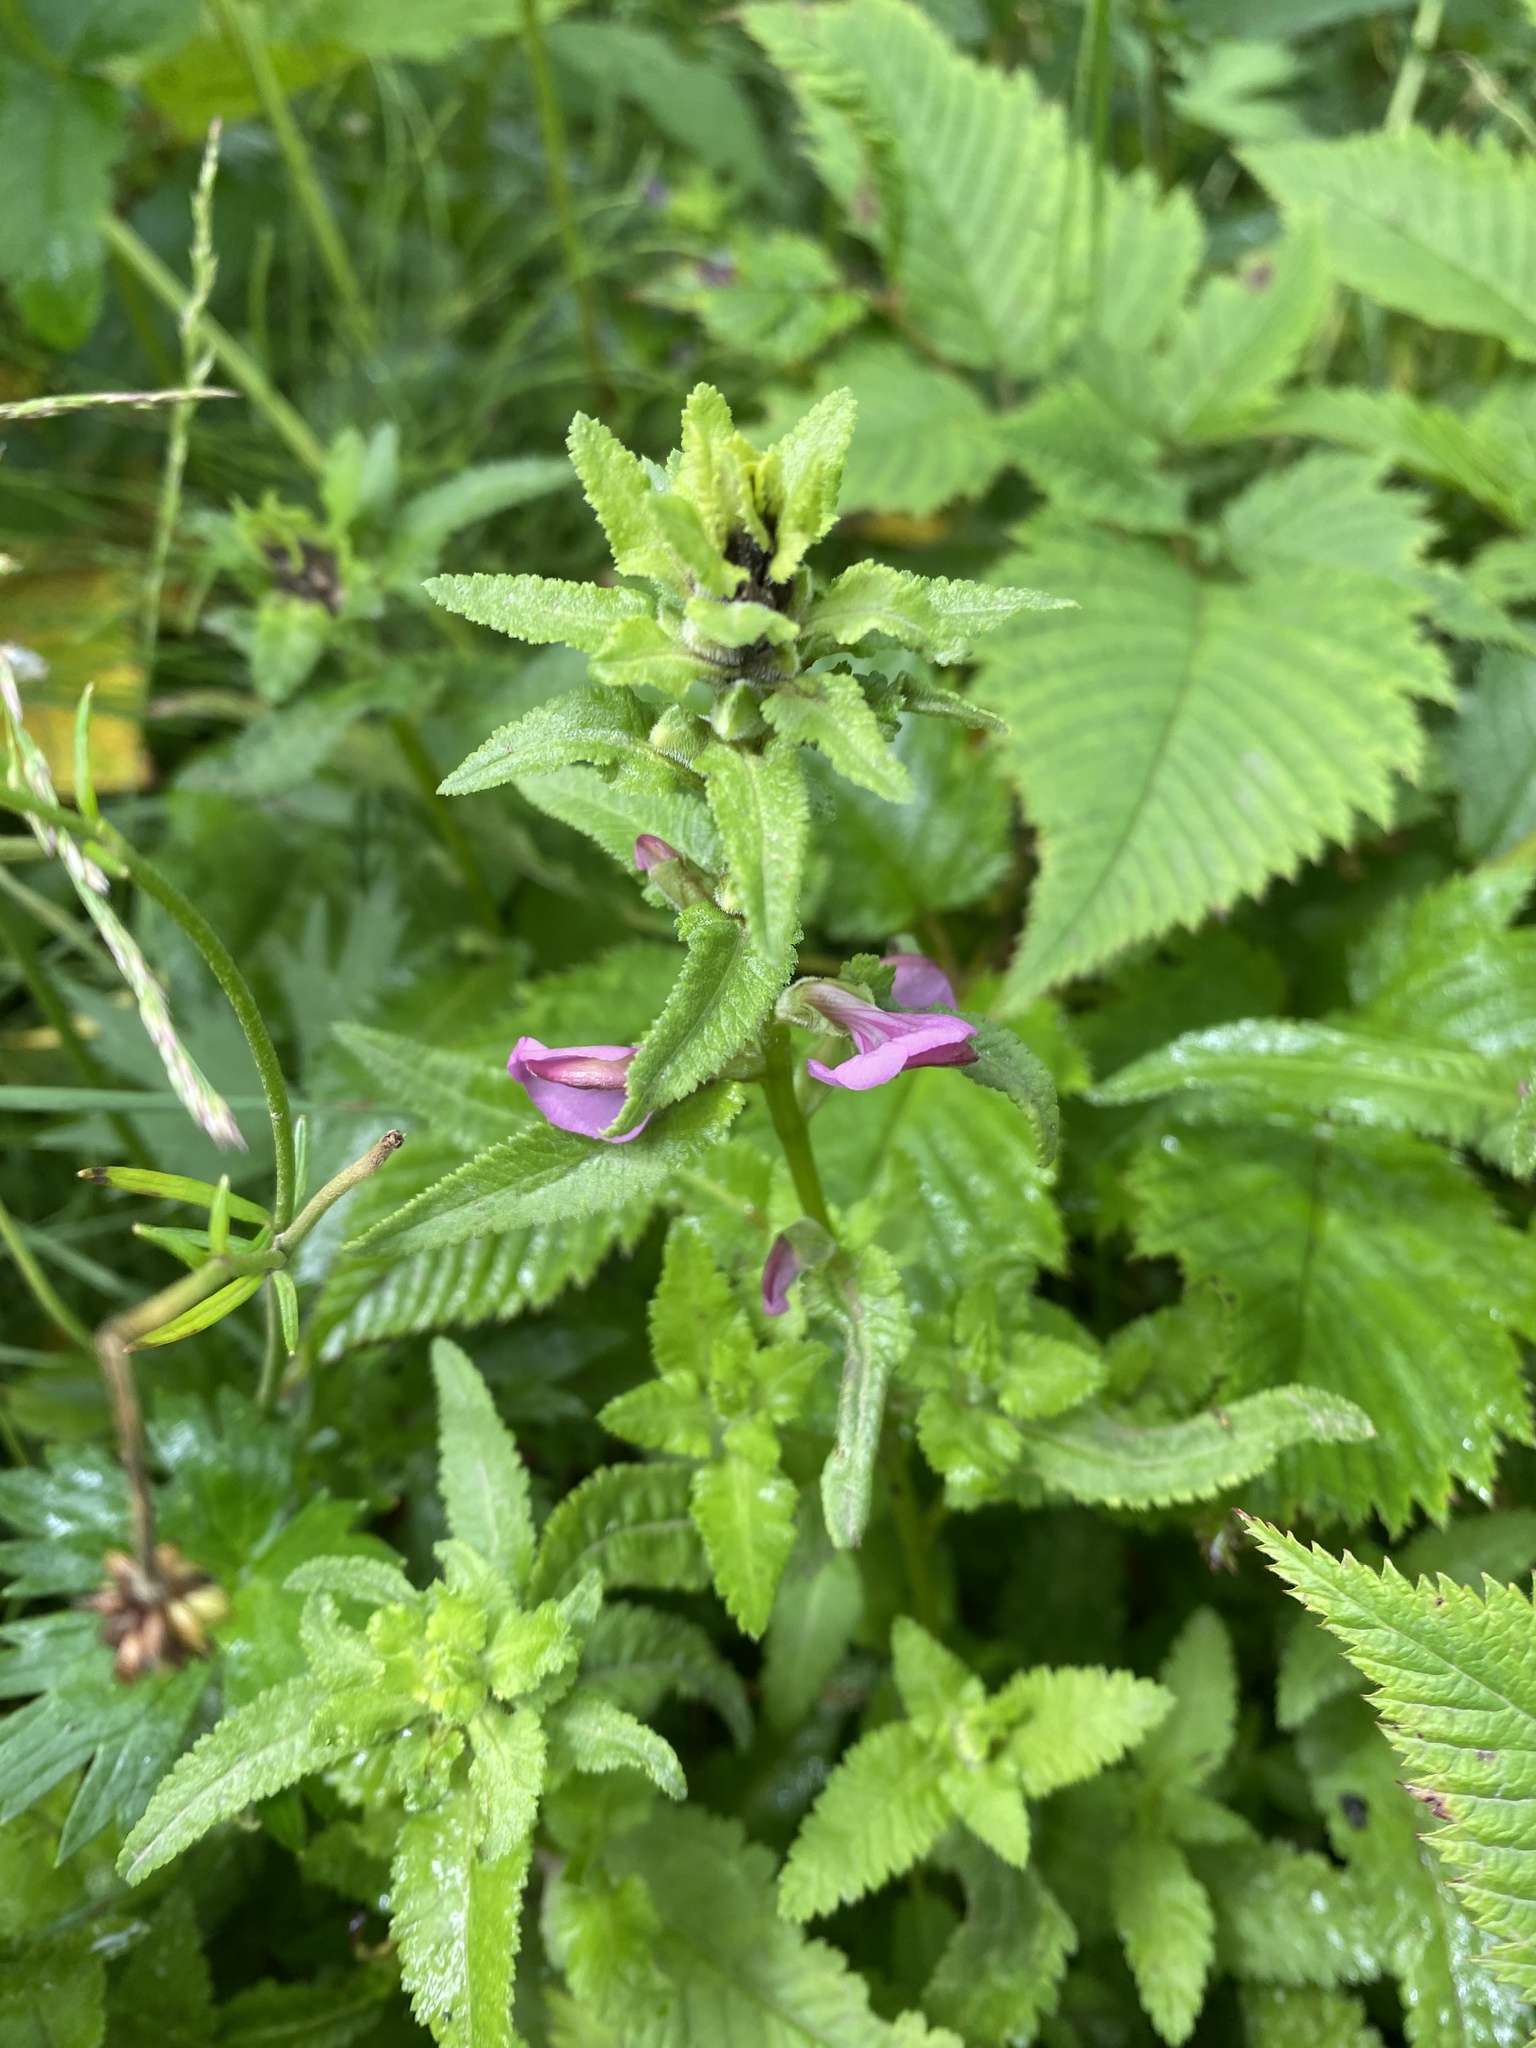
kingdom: Plantae
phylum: Tracheophyta
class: Magnoliopsida
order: Lamiales
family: Orobanchaceae
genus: Pedicularis
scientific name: Pedicularis resupinata
